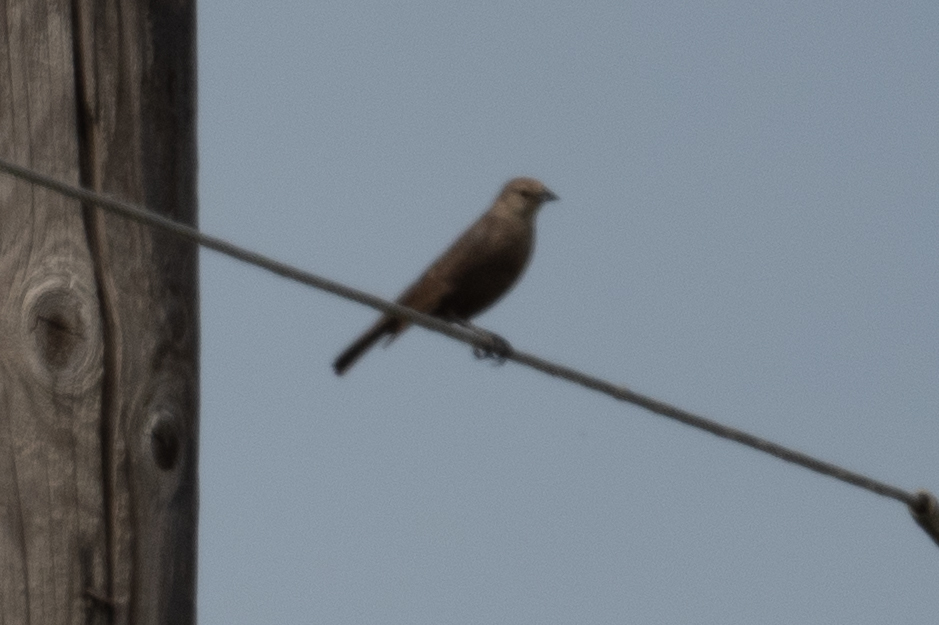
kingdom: Animalia
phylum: Chordata
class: Aves
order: Passeriformes
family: Icteridae
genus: Molothrus
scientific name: Molothrus ater
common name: Brown-headed cowbird
